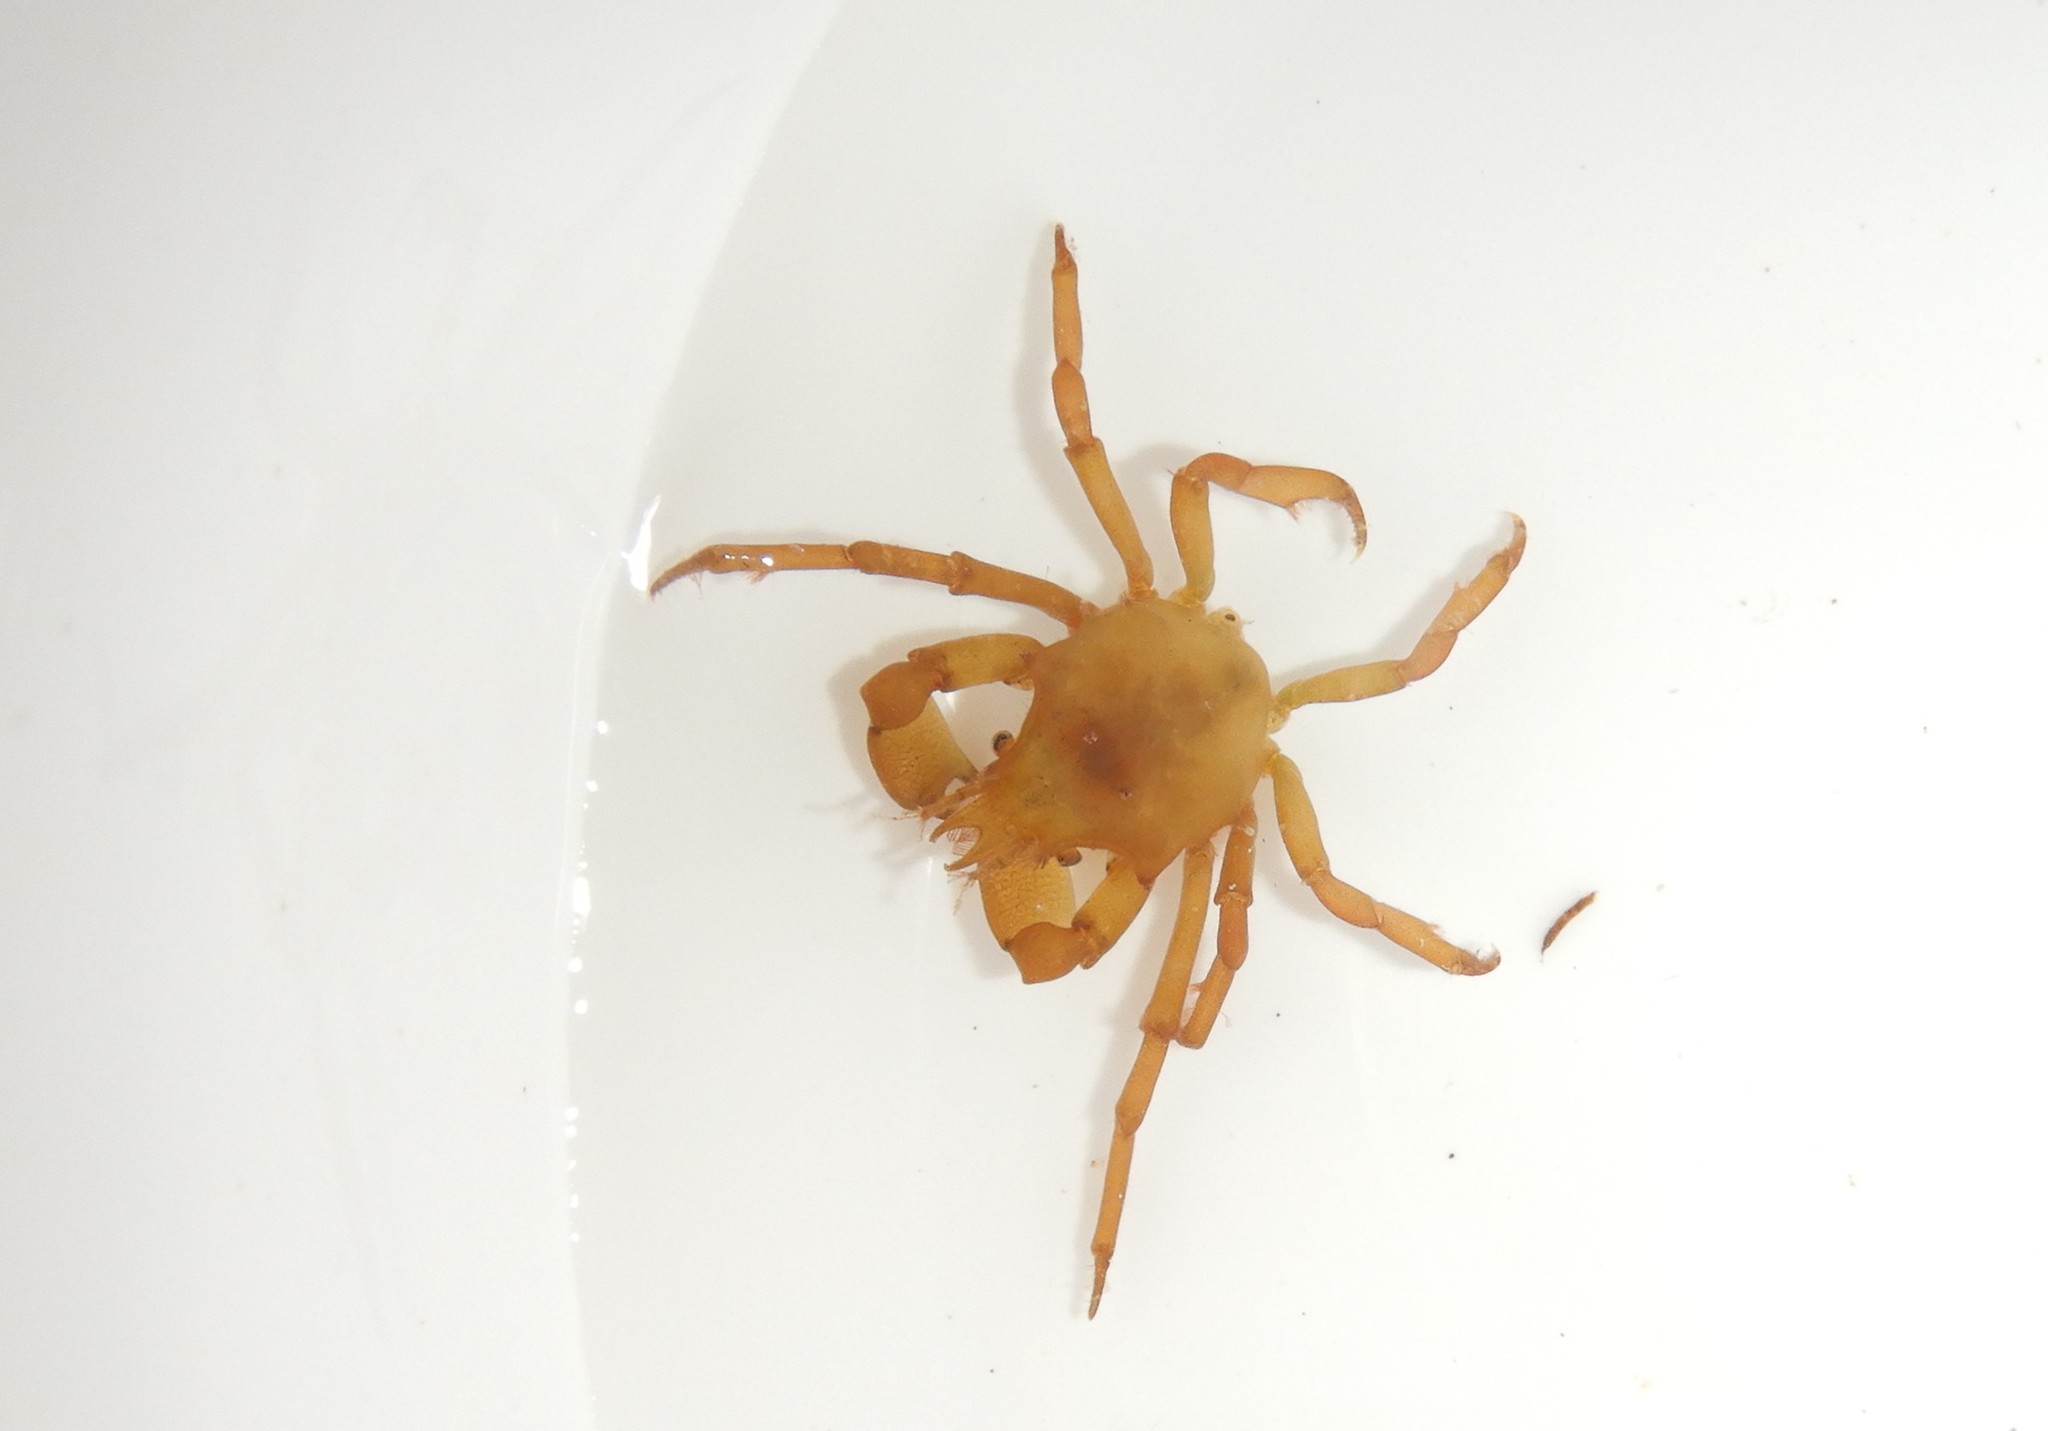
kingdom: Animalia
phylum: Arthropoda
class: Malacostraca
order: Decapoda
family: Epialtidae
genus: Acanthonyx
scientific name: Acanthonyx lunulatus
